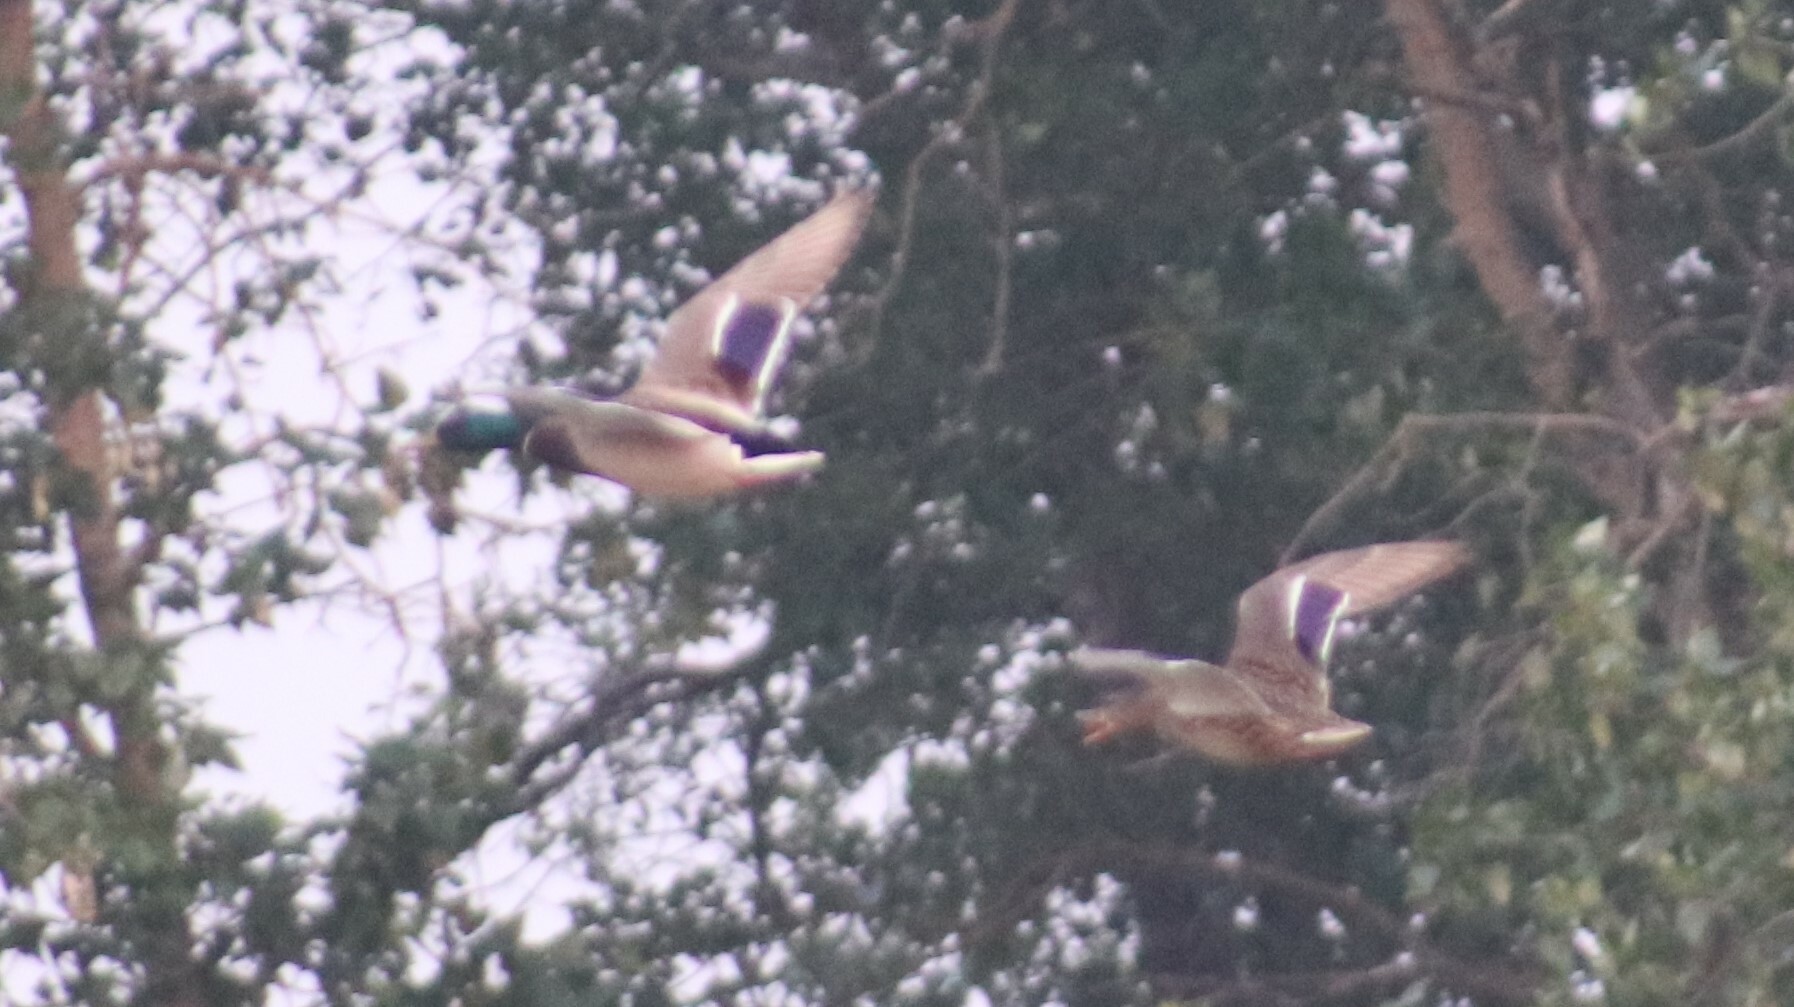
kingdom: Animalia
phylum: Chordata
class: Aves
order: Anseriformes
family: Anatidae
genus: Anas
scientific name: Anas platyrhynchos
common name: Mallard
